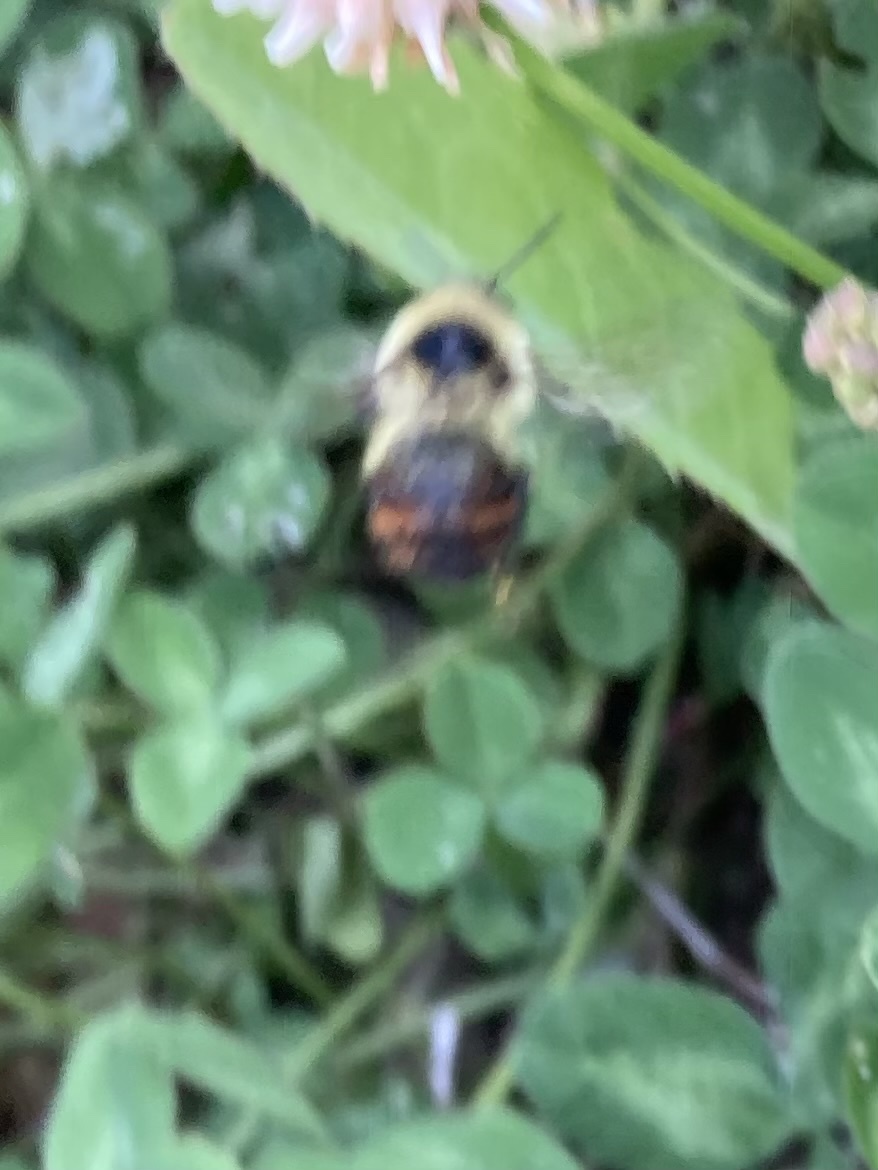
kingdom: Animalia
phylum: Arthropoda
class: Insecta
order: Hymenoptera
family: Apidae
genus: Bombus
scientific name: Bombus rufocinctus
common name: Red-belted bumble bee
